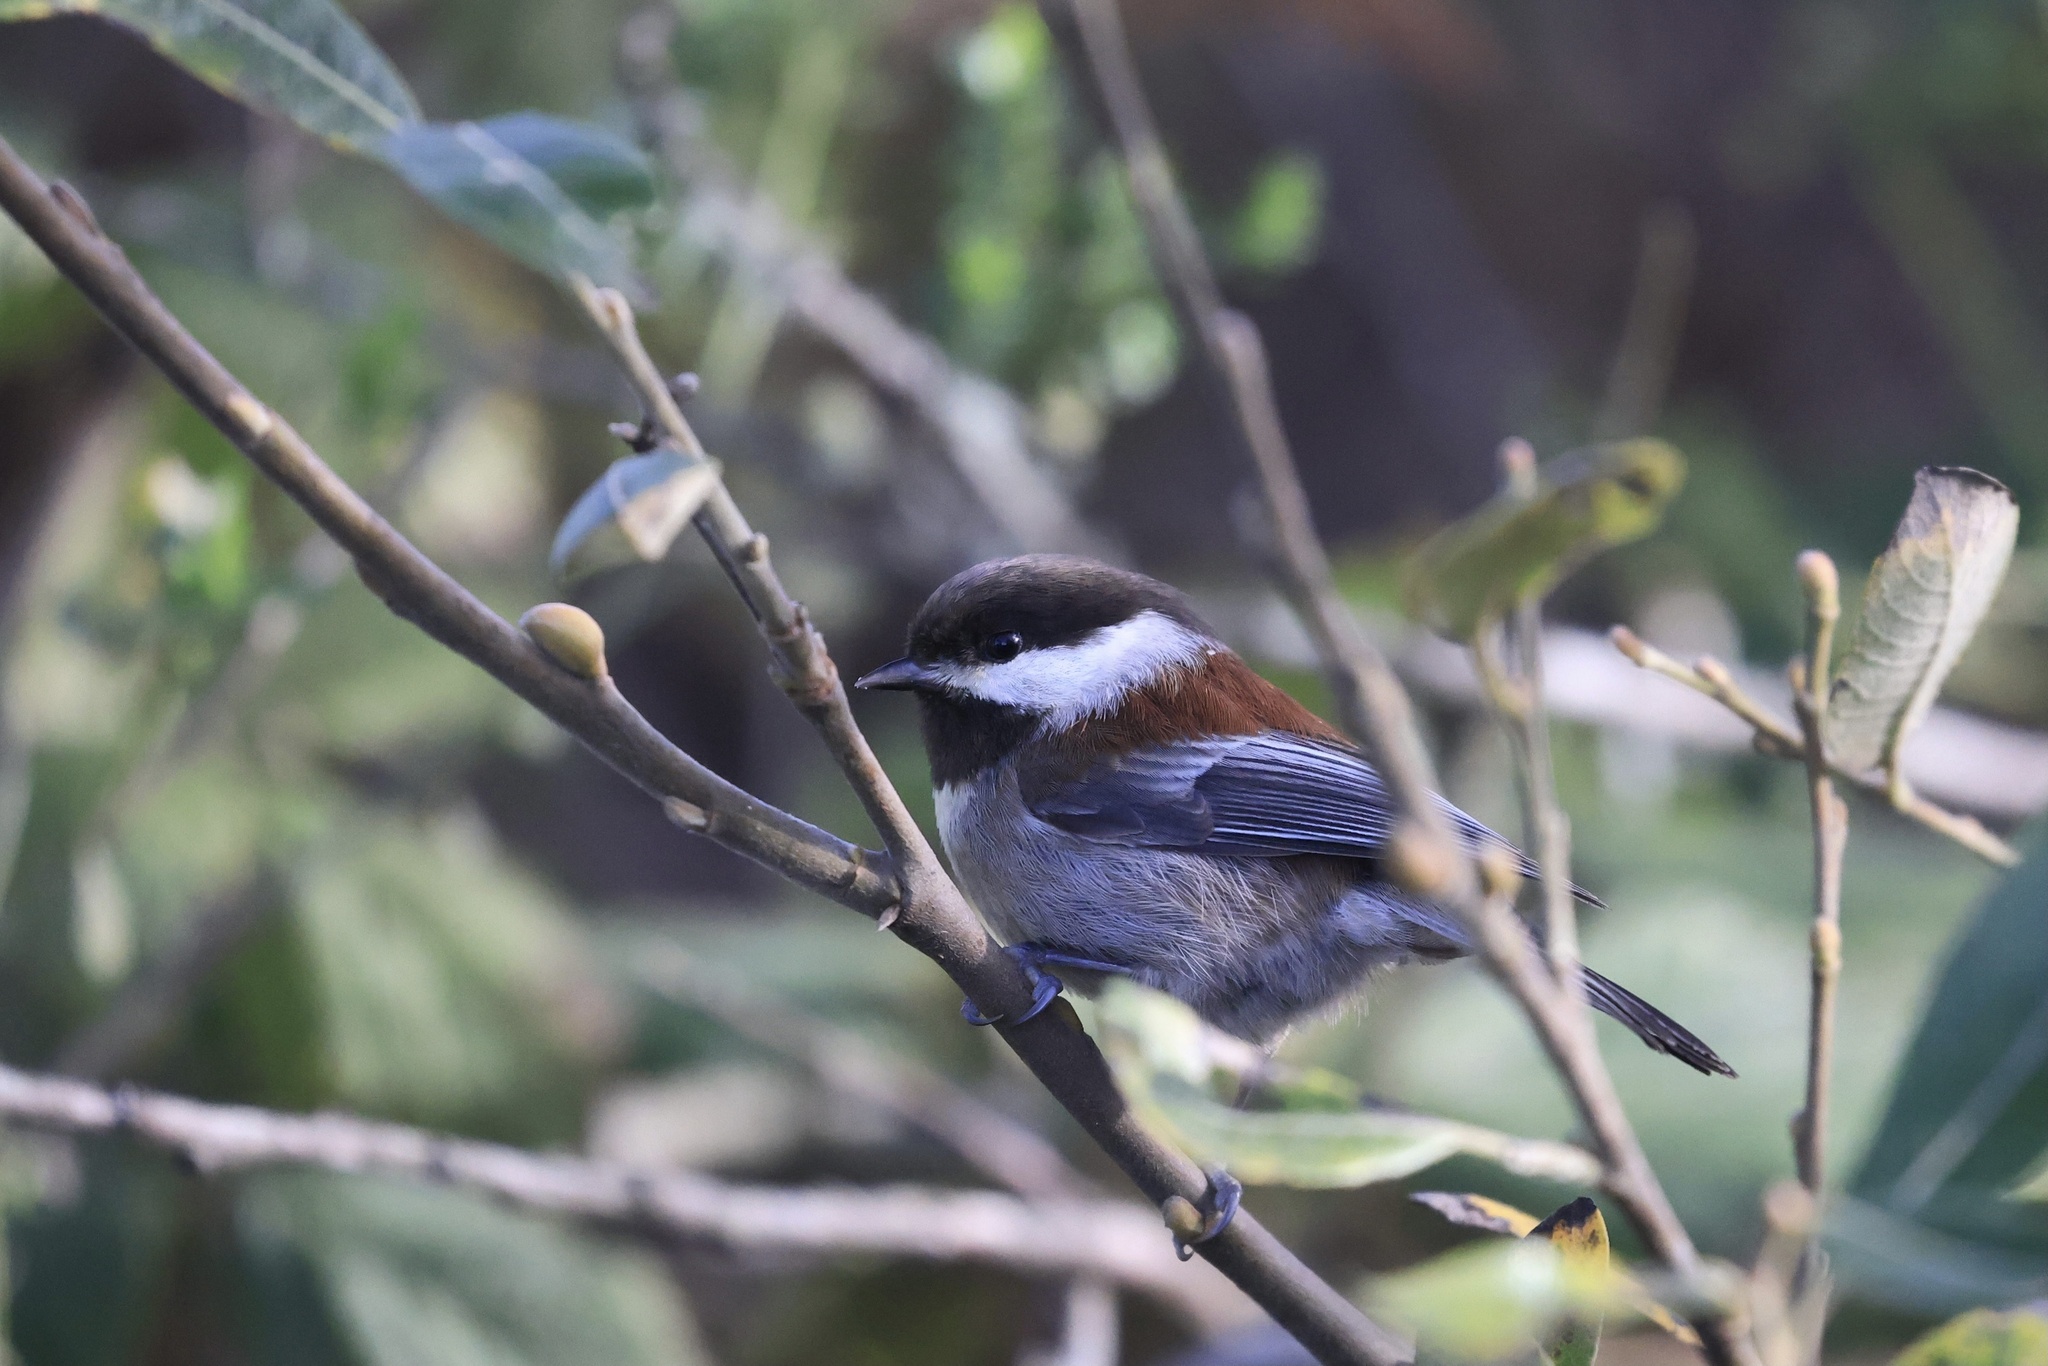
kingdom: Animalia
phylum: Chordata
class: Aves
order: Passeriformes
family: Paridae
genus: Poecile
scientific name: Poecile rufescens
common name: Chestnut-backed chickadee
